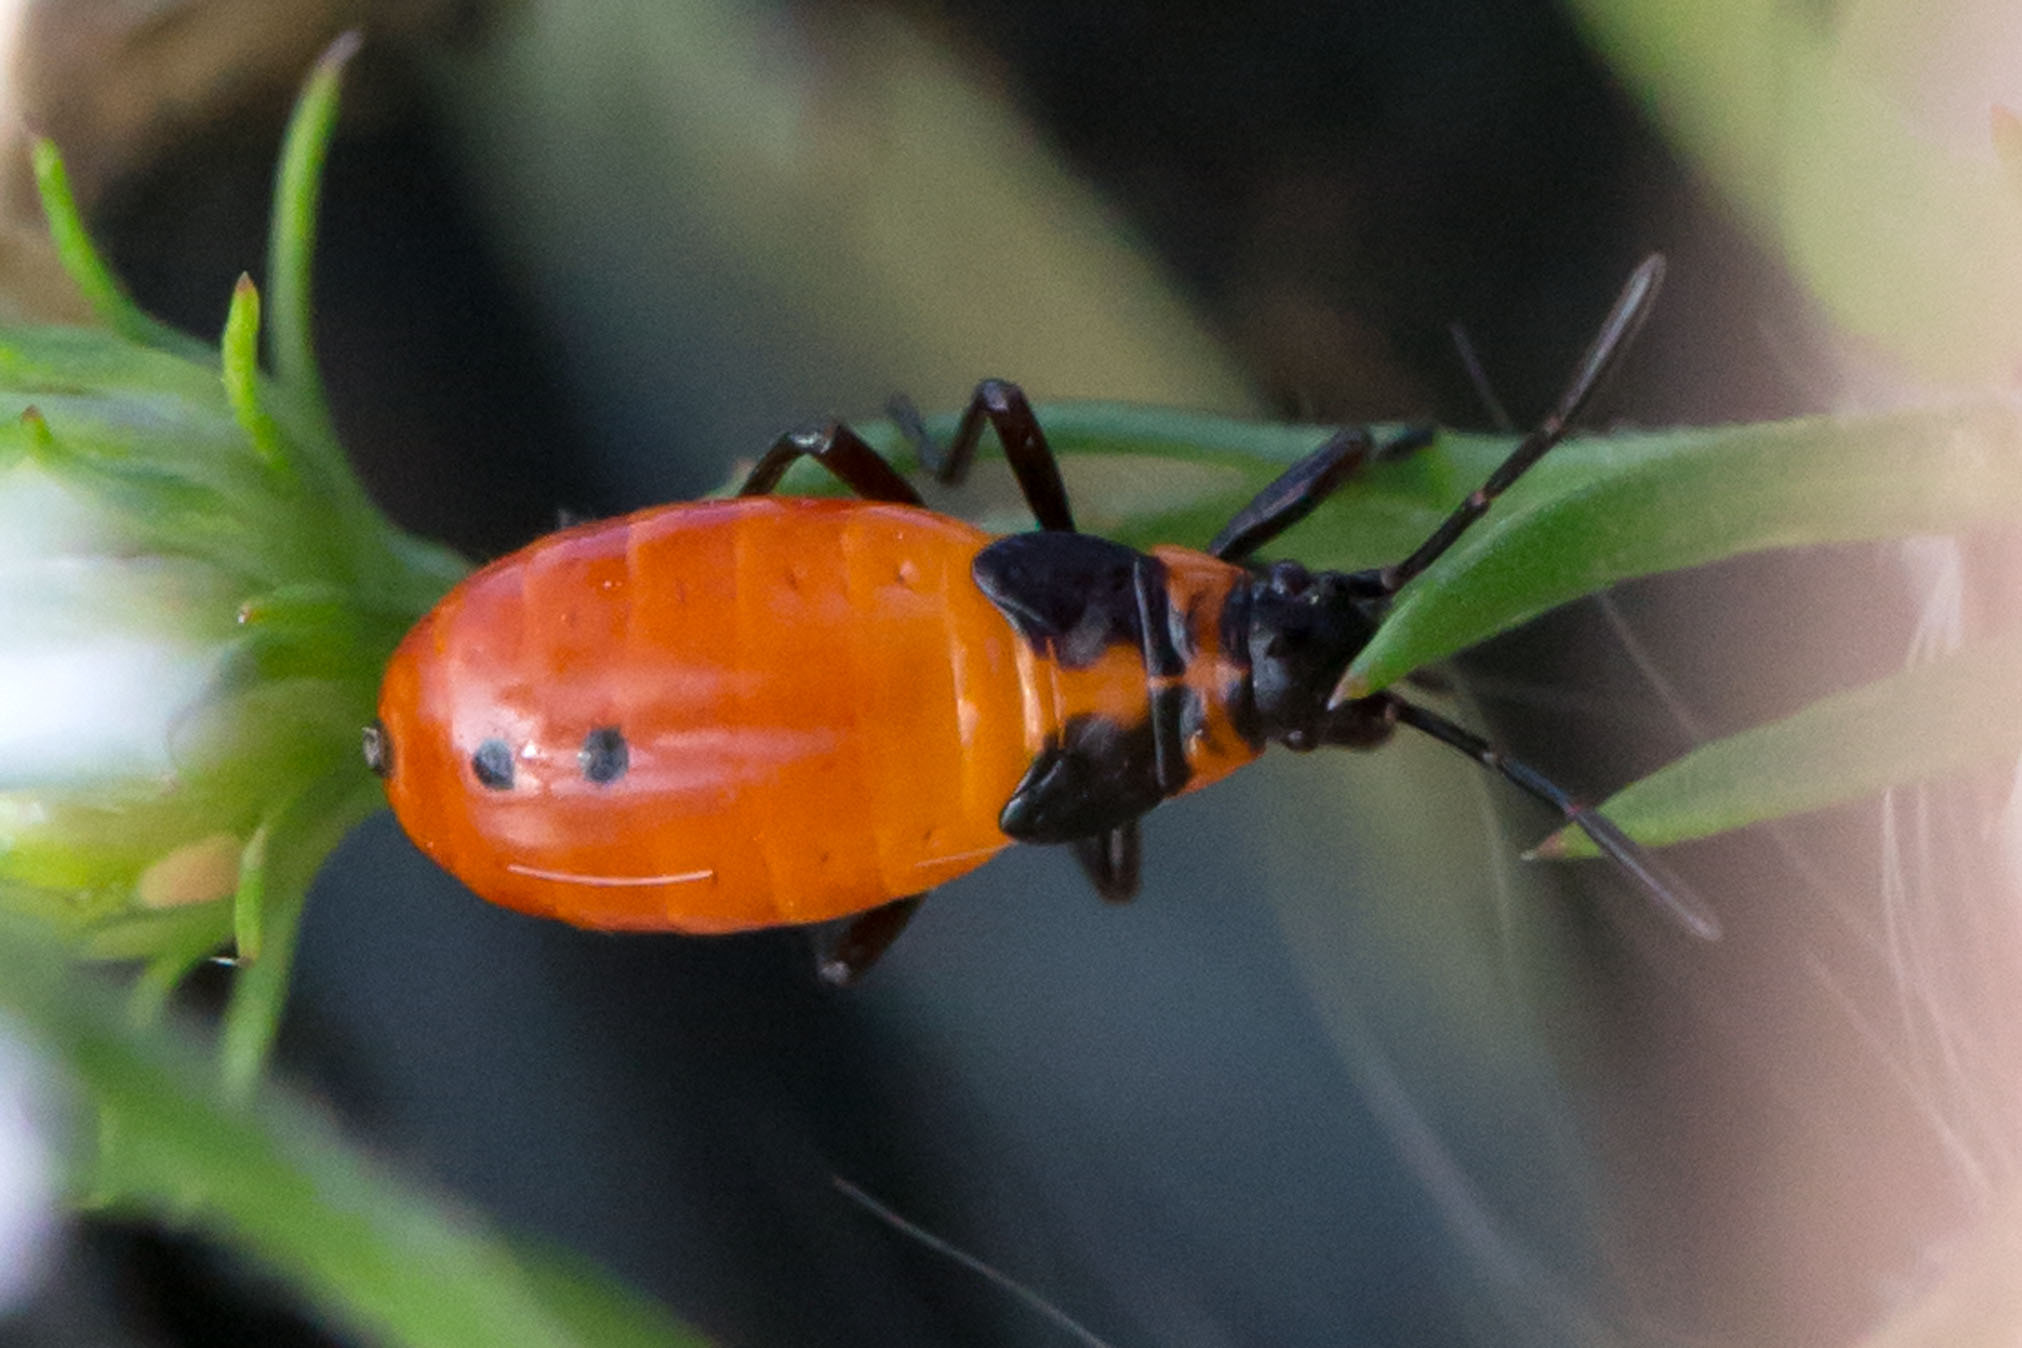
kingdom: Animalia
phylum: Arthropoda
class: Insecta
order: Hemiptera
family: Lygaeidae
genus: Oncopeltus
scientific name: Oncopeltus fasciatus
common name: Large milkweed bug
